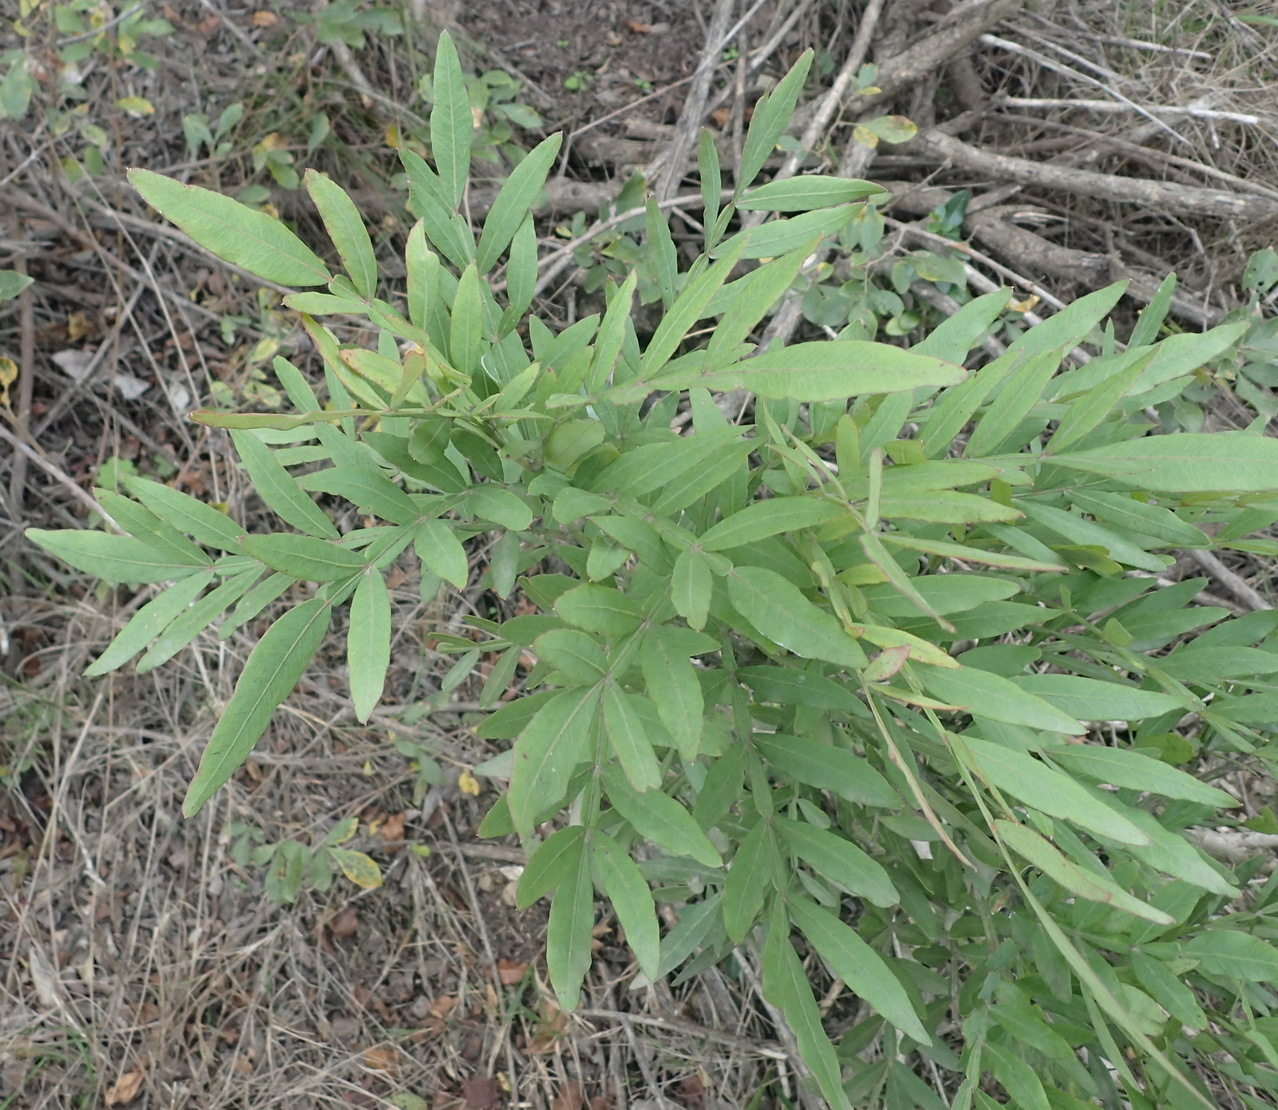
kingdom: Plantae
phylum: Tracheophyta
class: Magnoliopsida
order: Sapindales
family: Anacardiaceae
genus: Loxostylis
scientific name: Loxostylis alata
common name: Wild peppertree
